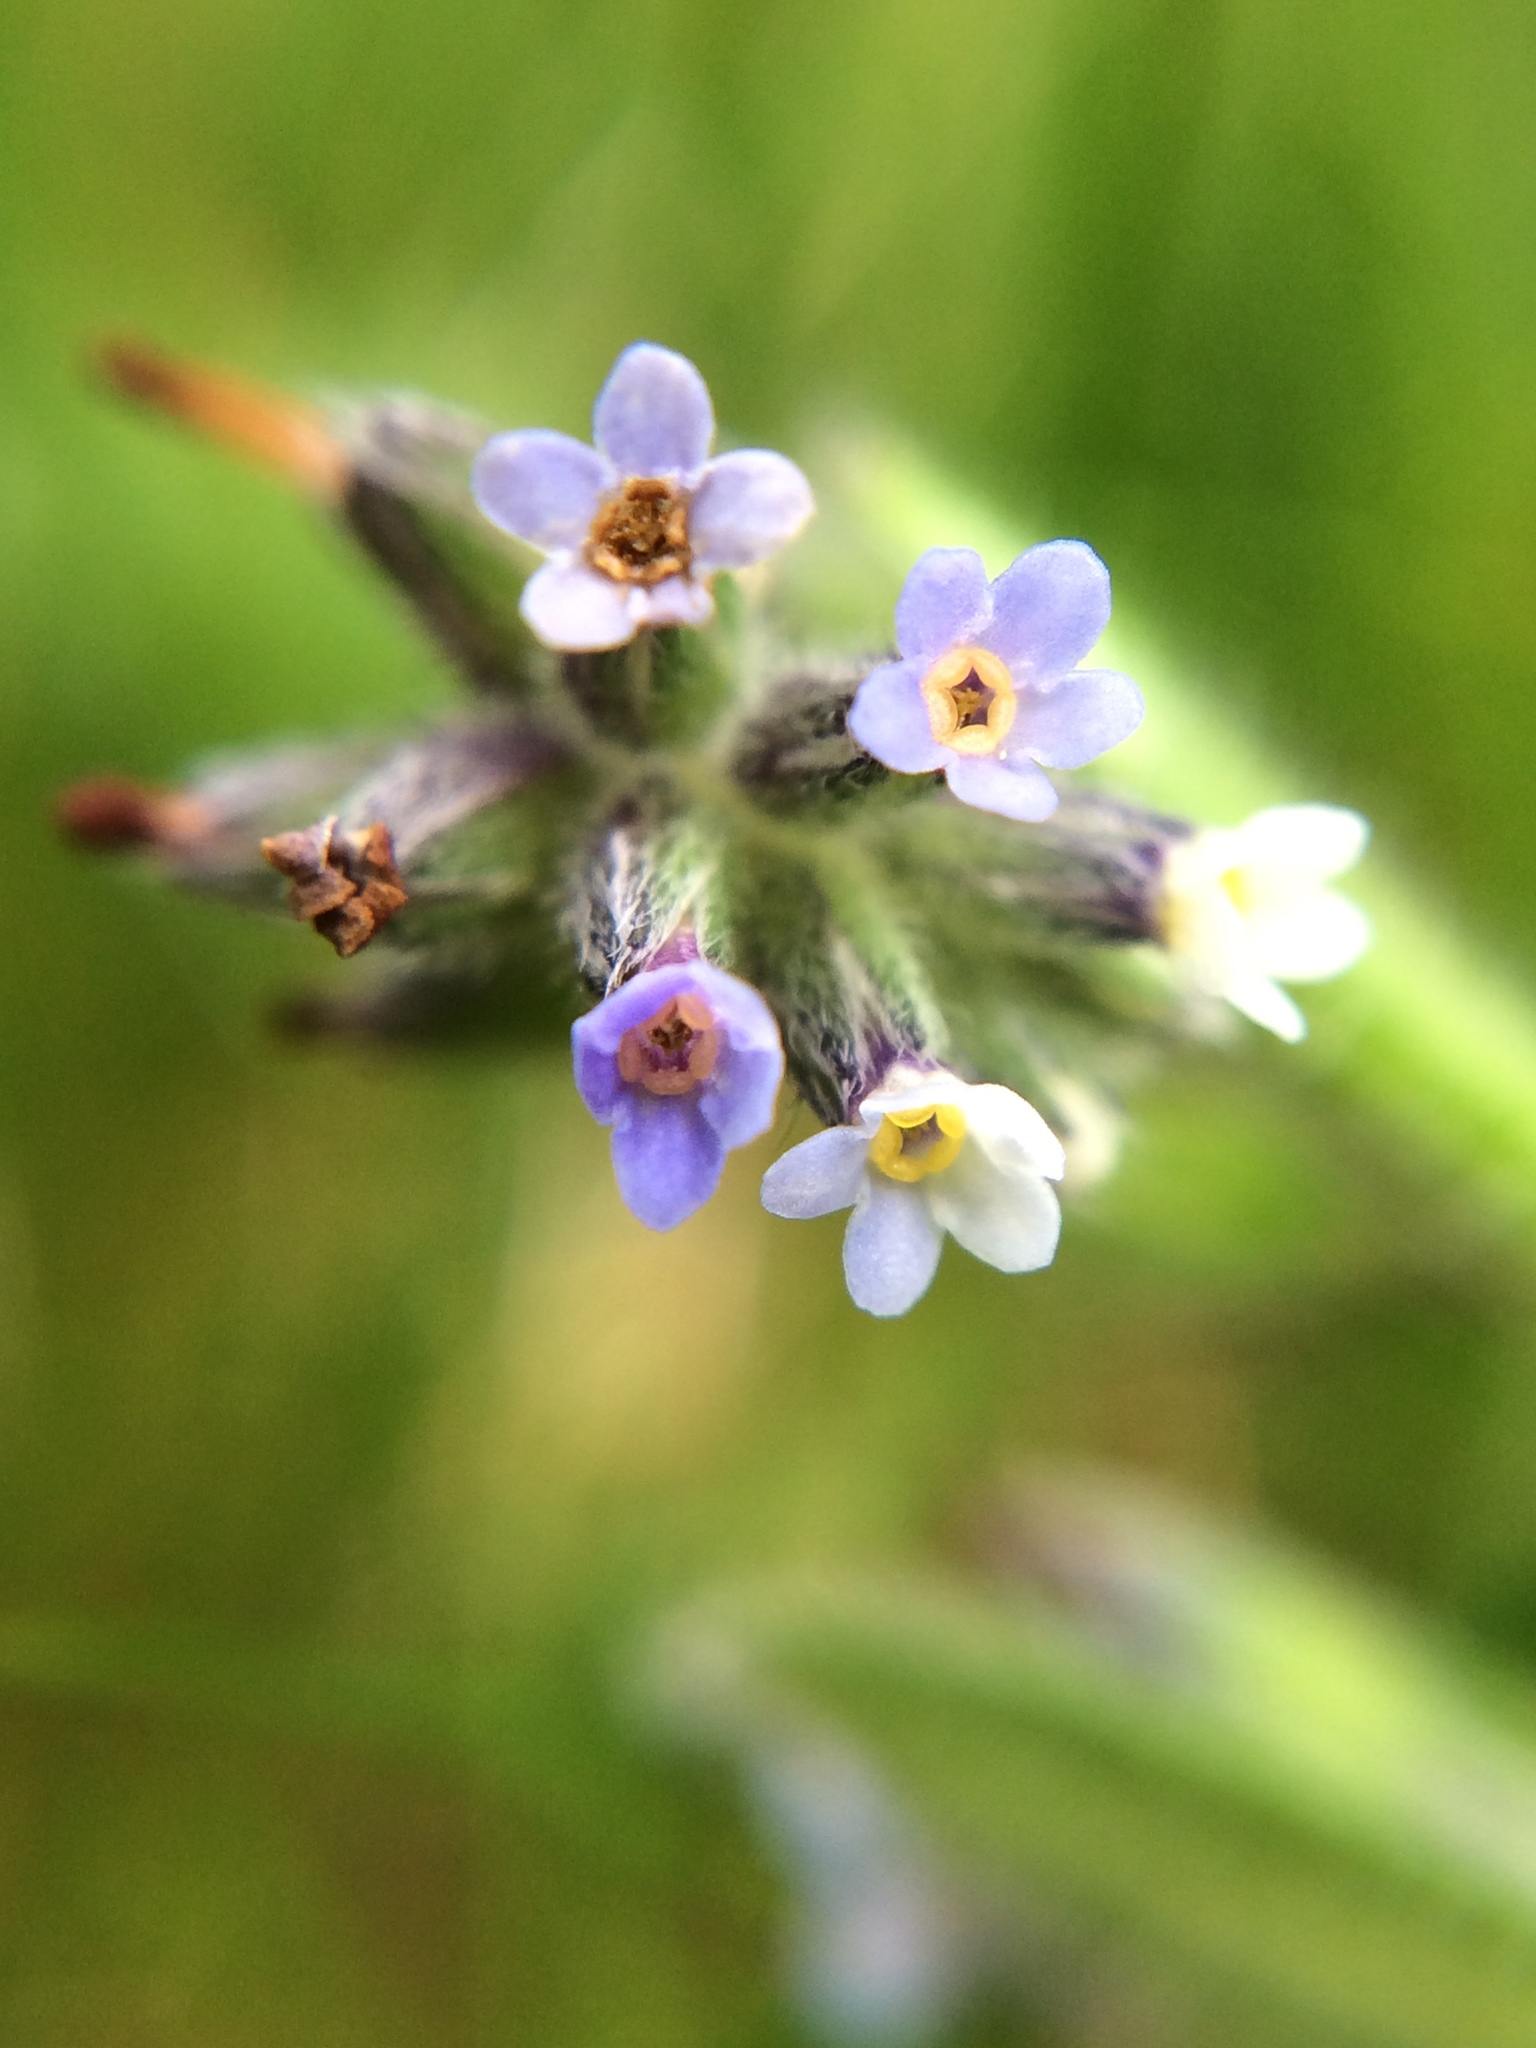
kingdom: Plantae
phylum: Tracheophyta
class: Magnoliopsida
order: Boraginales
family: Boraginaceae
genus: Myosotis
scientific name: Myosotis discolor
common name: Changing forget-me-not
